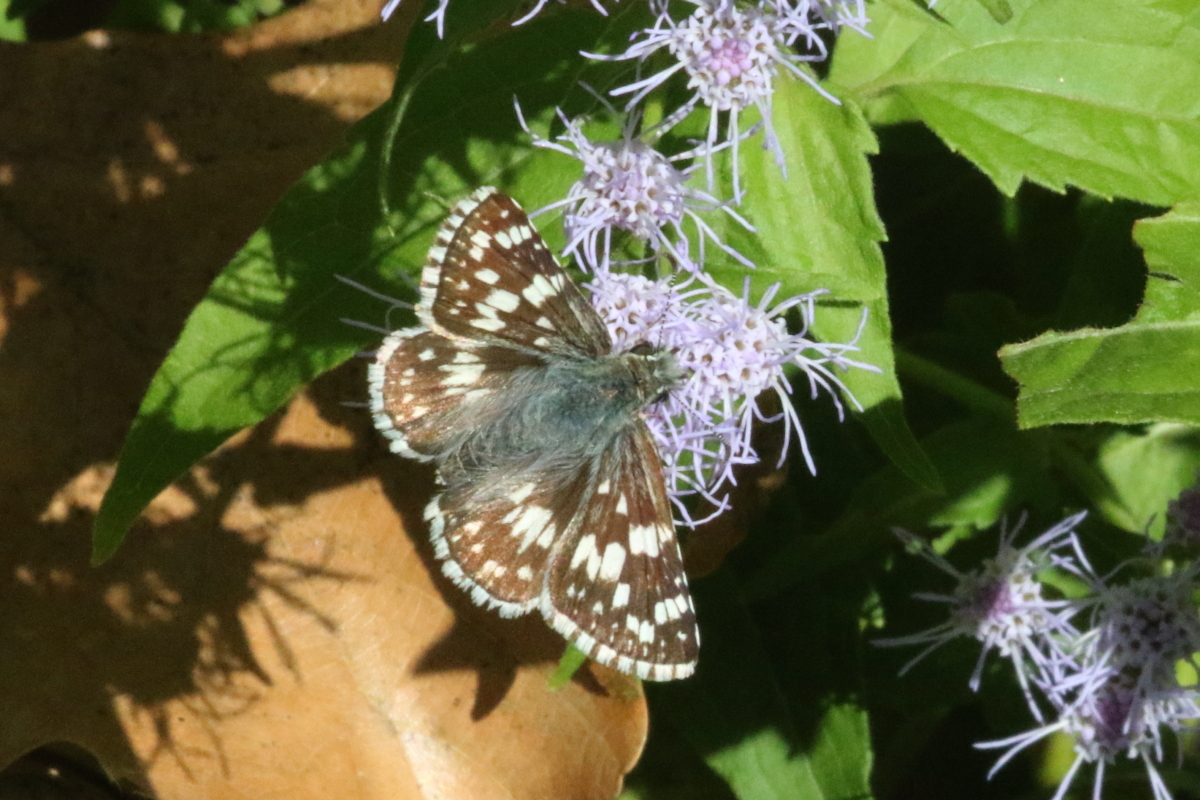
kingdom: Animalia
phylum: Arthropoda
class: Insecta
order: Lepidoptera
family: Hesperiidae
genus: Burnsius
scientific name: Burnsius
